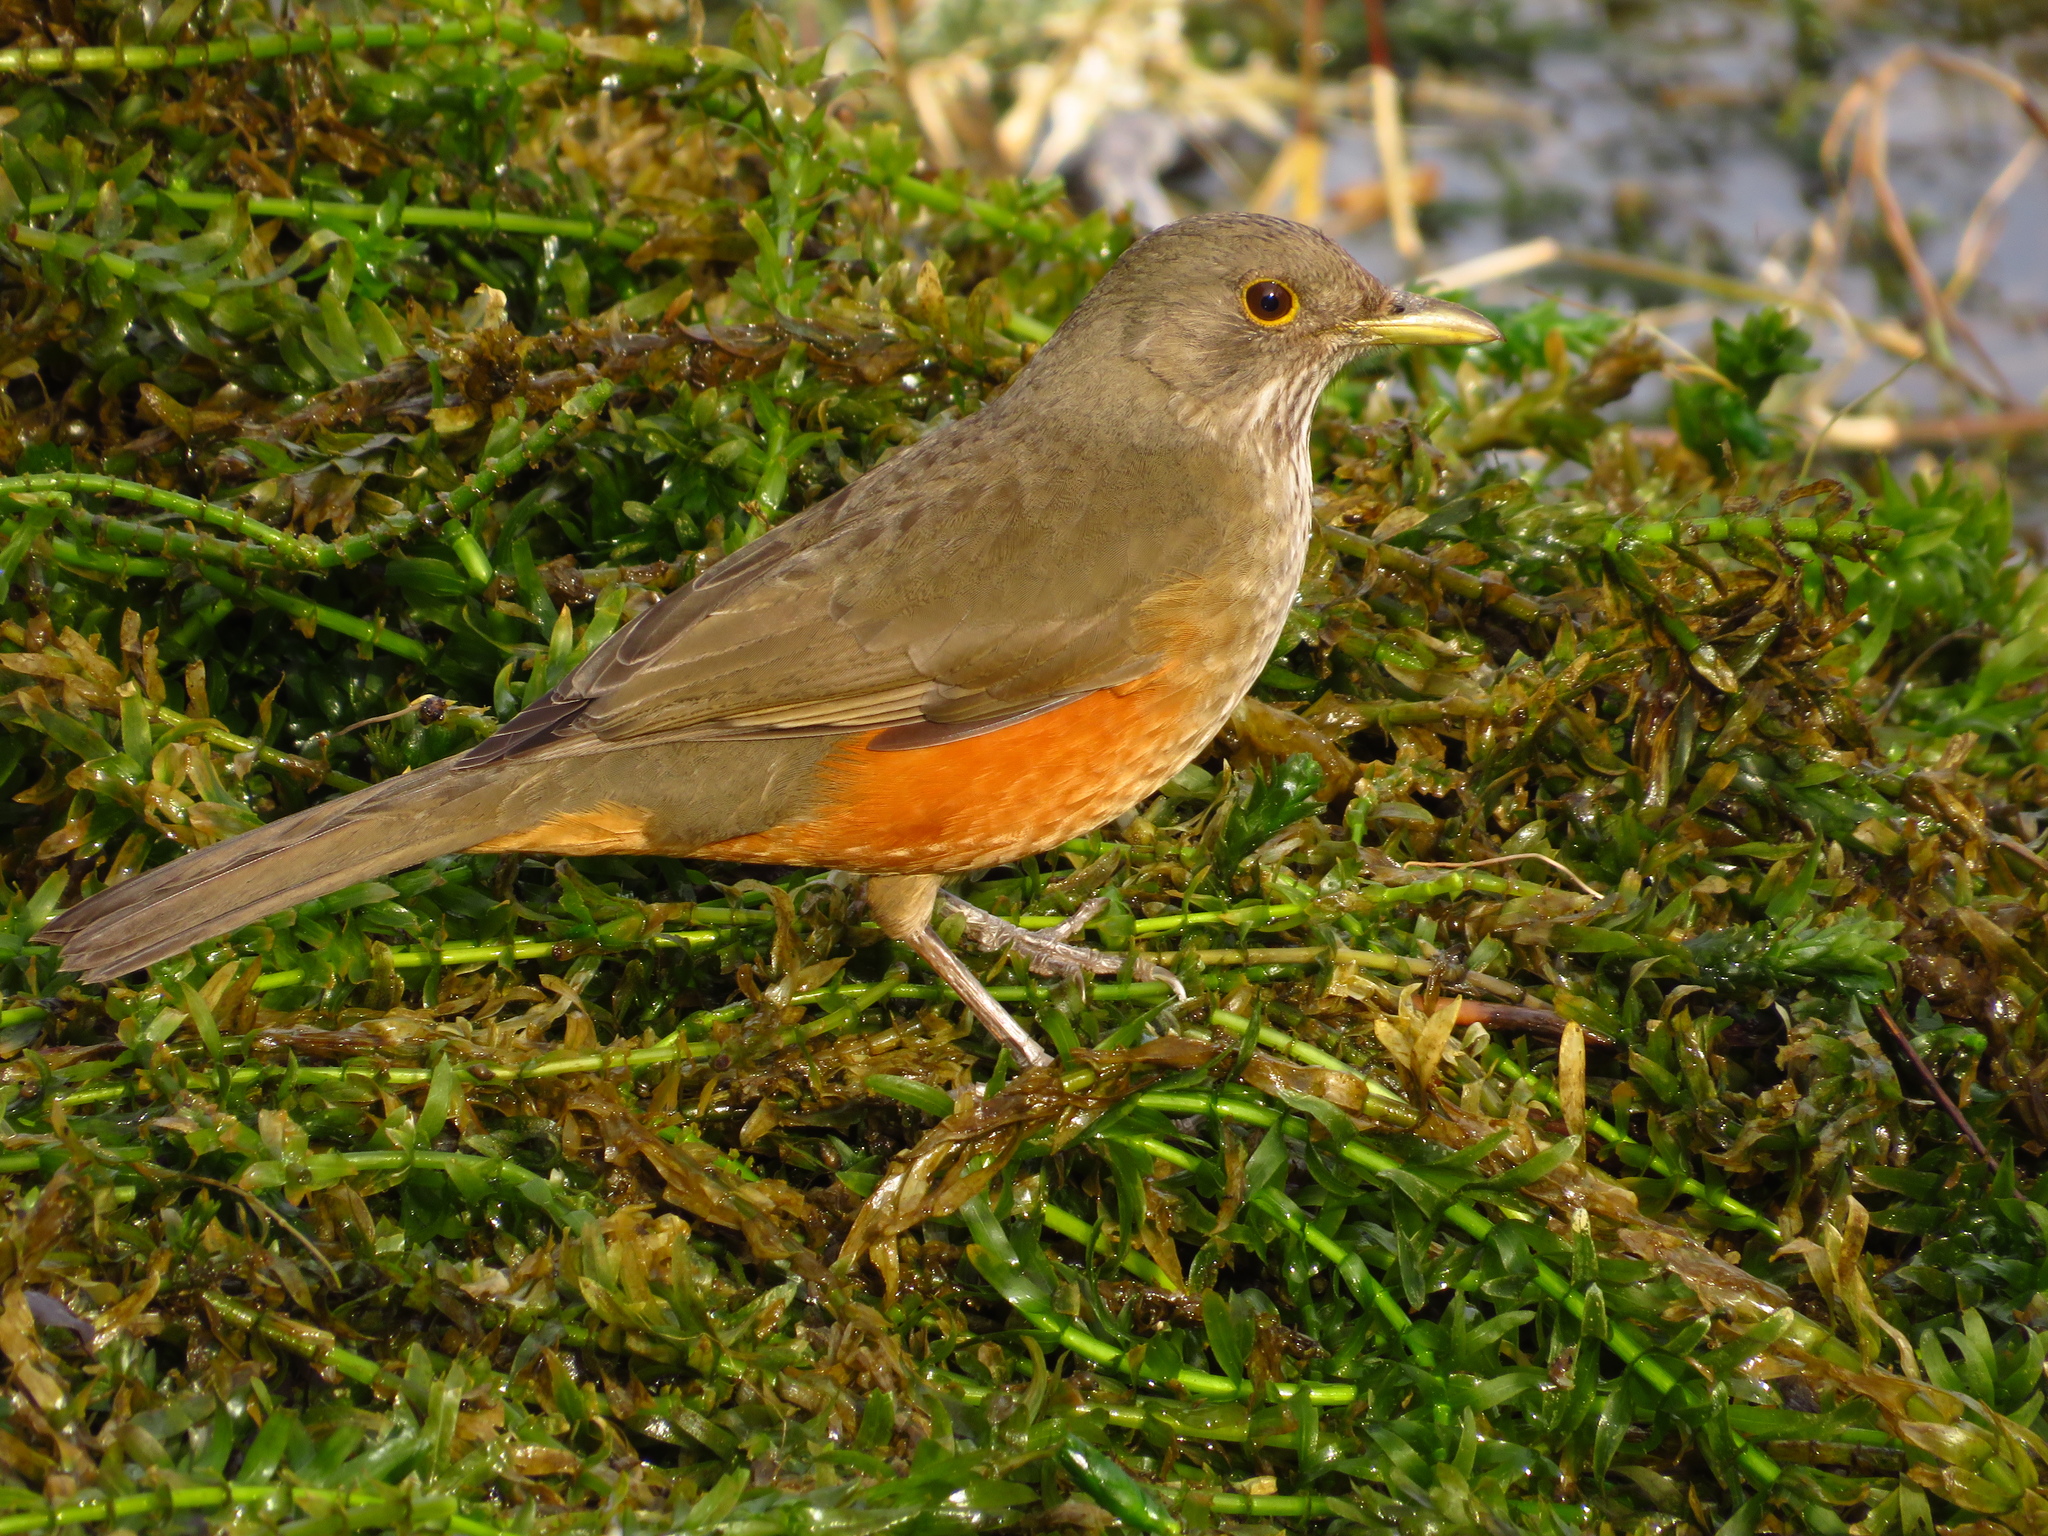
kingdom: Animalia
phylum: Chordata
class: Aves
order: Passeriformes
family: Turdidae
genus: Turdus
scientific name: Turdus rufiventris
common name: Rufous-bellied thrush
